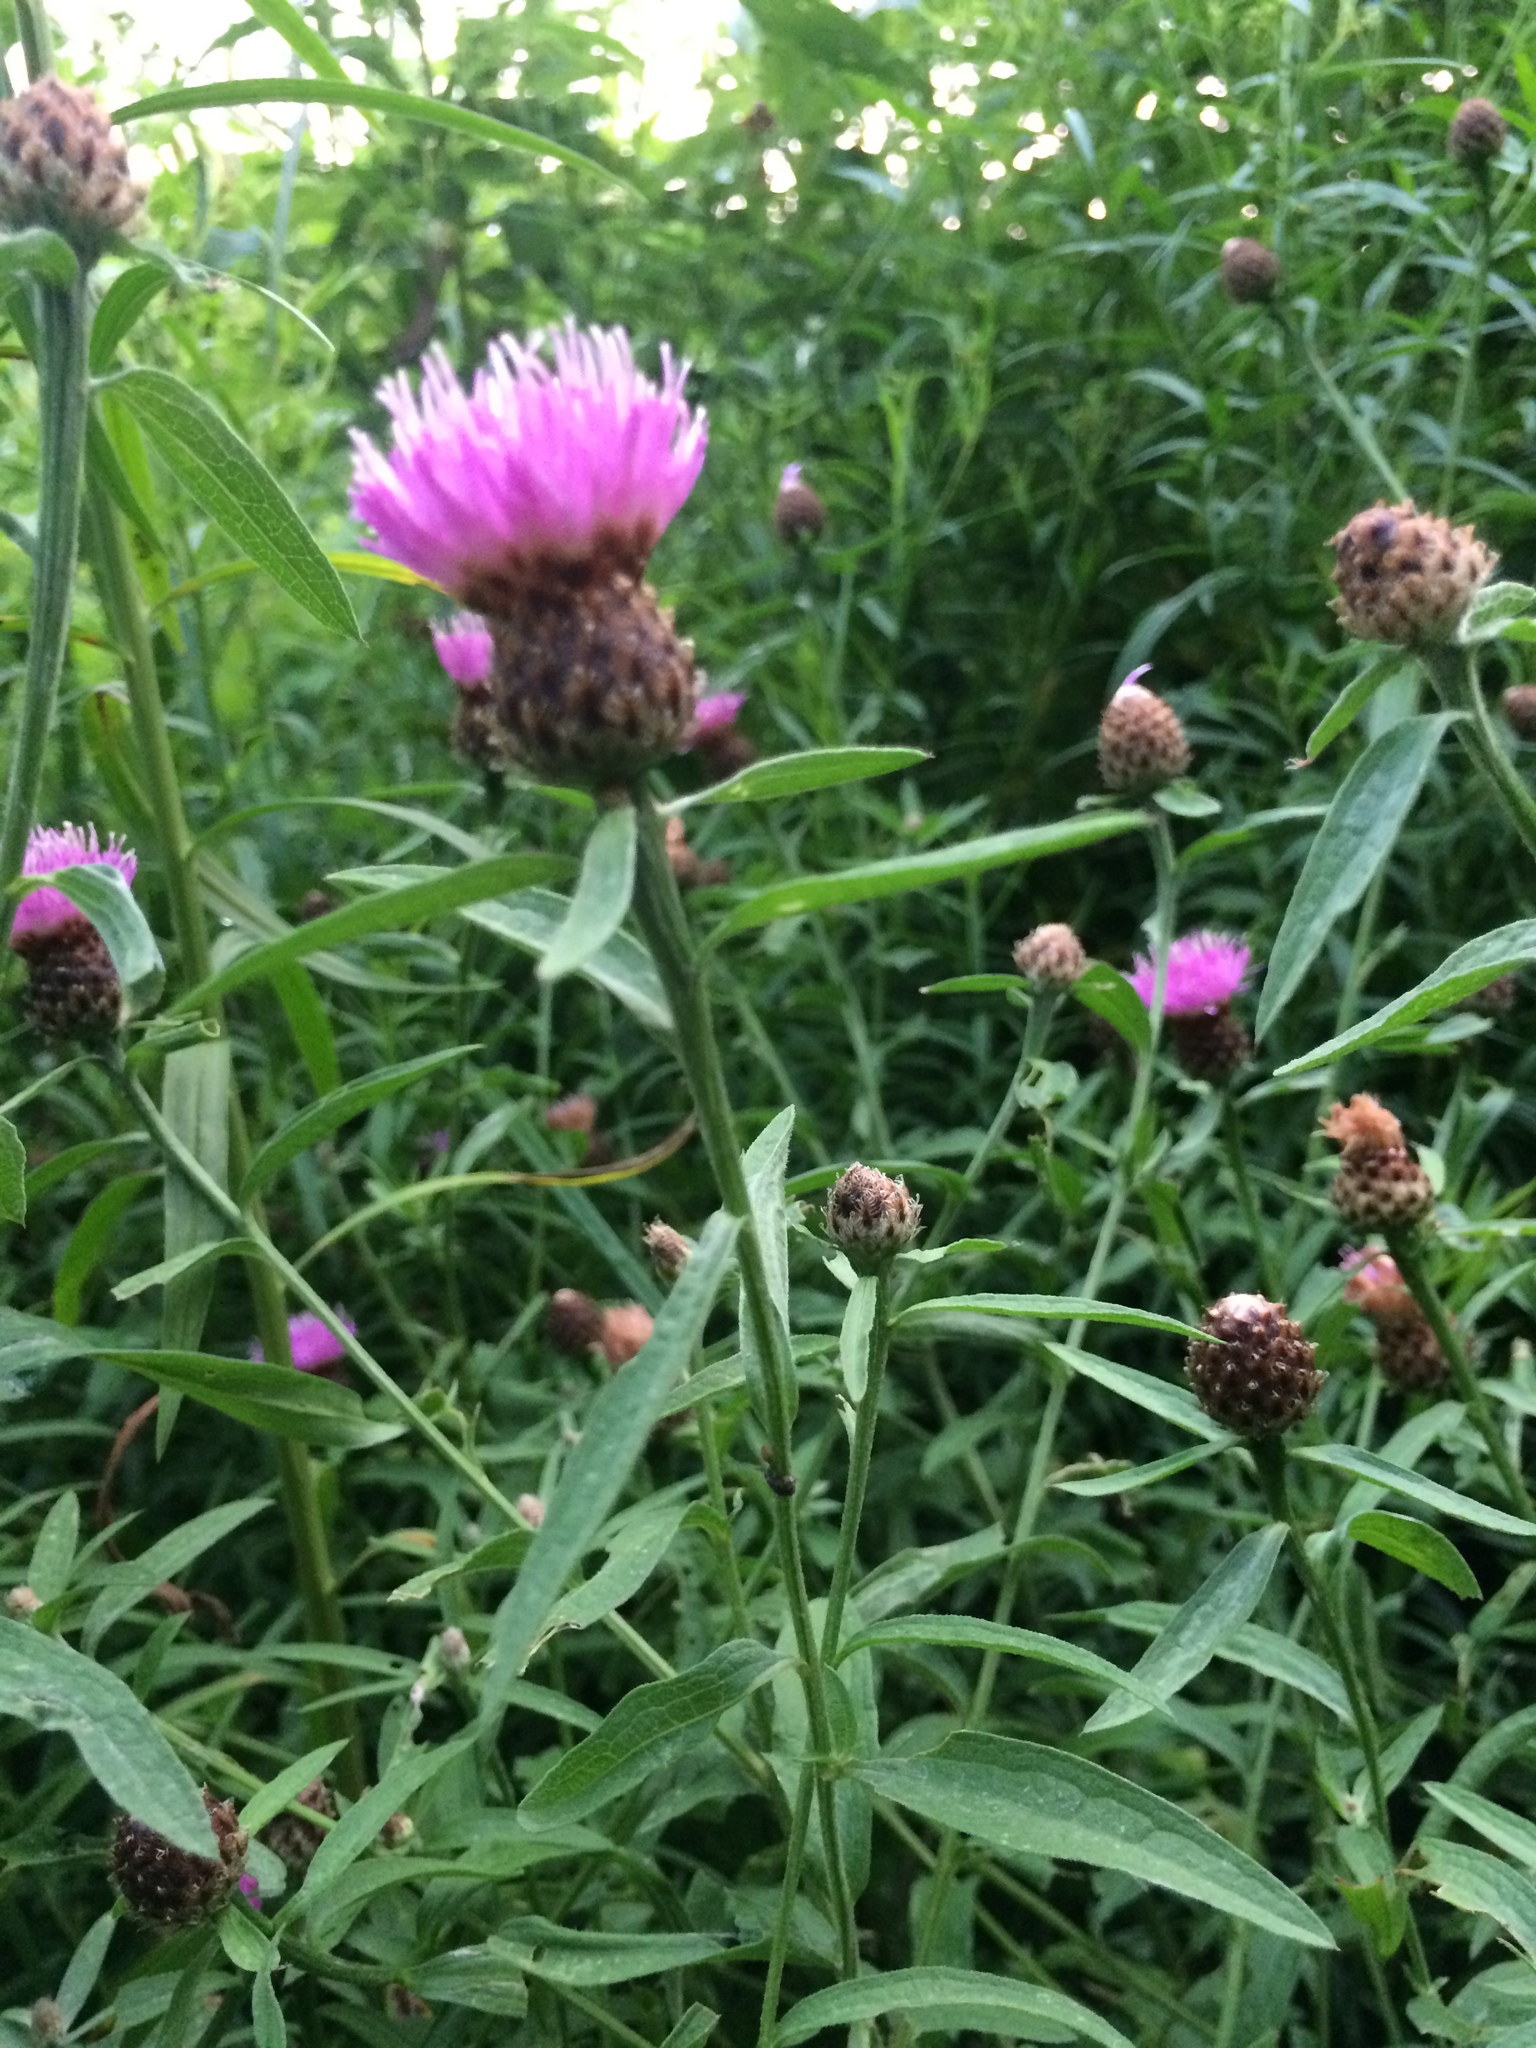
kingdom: Plantae
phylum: Tracheophyta
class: Magnoliopsida
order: Asterales
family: Asteraceae
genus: Centaurea
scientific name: Centaurea nigra
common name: Lesser knapweed
